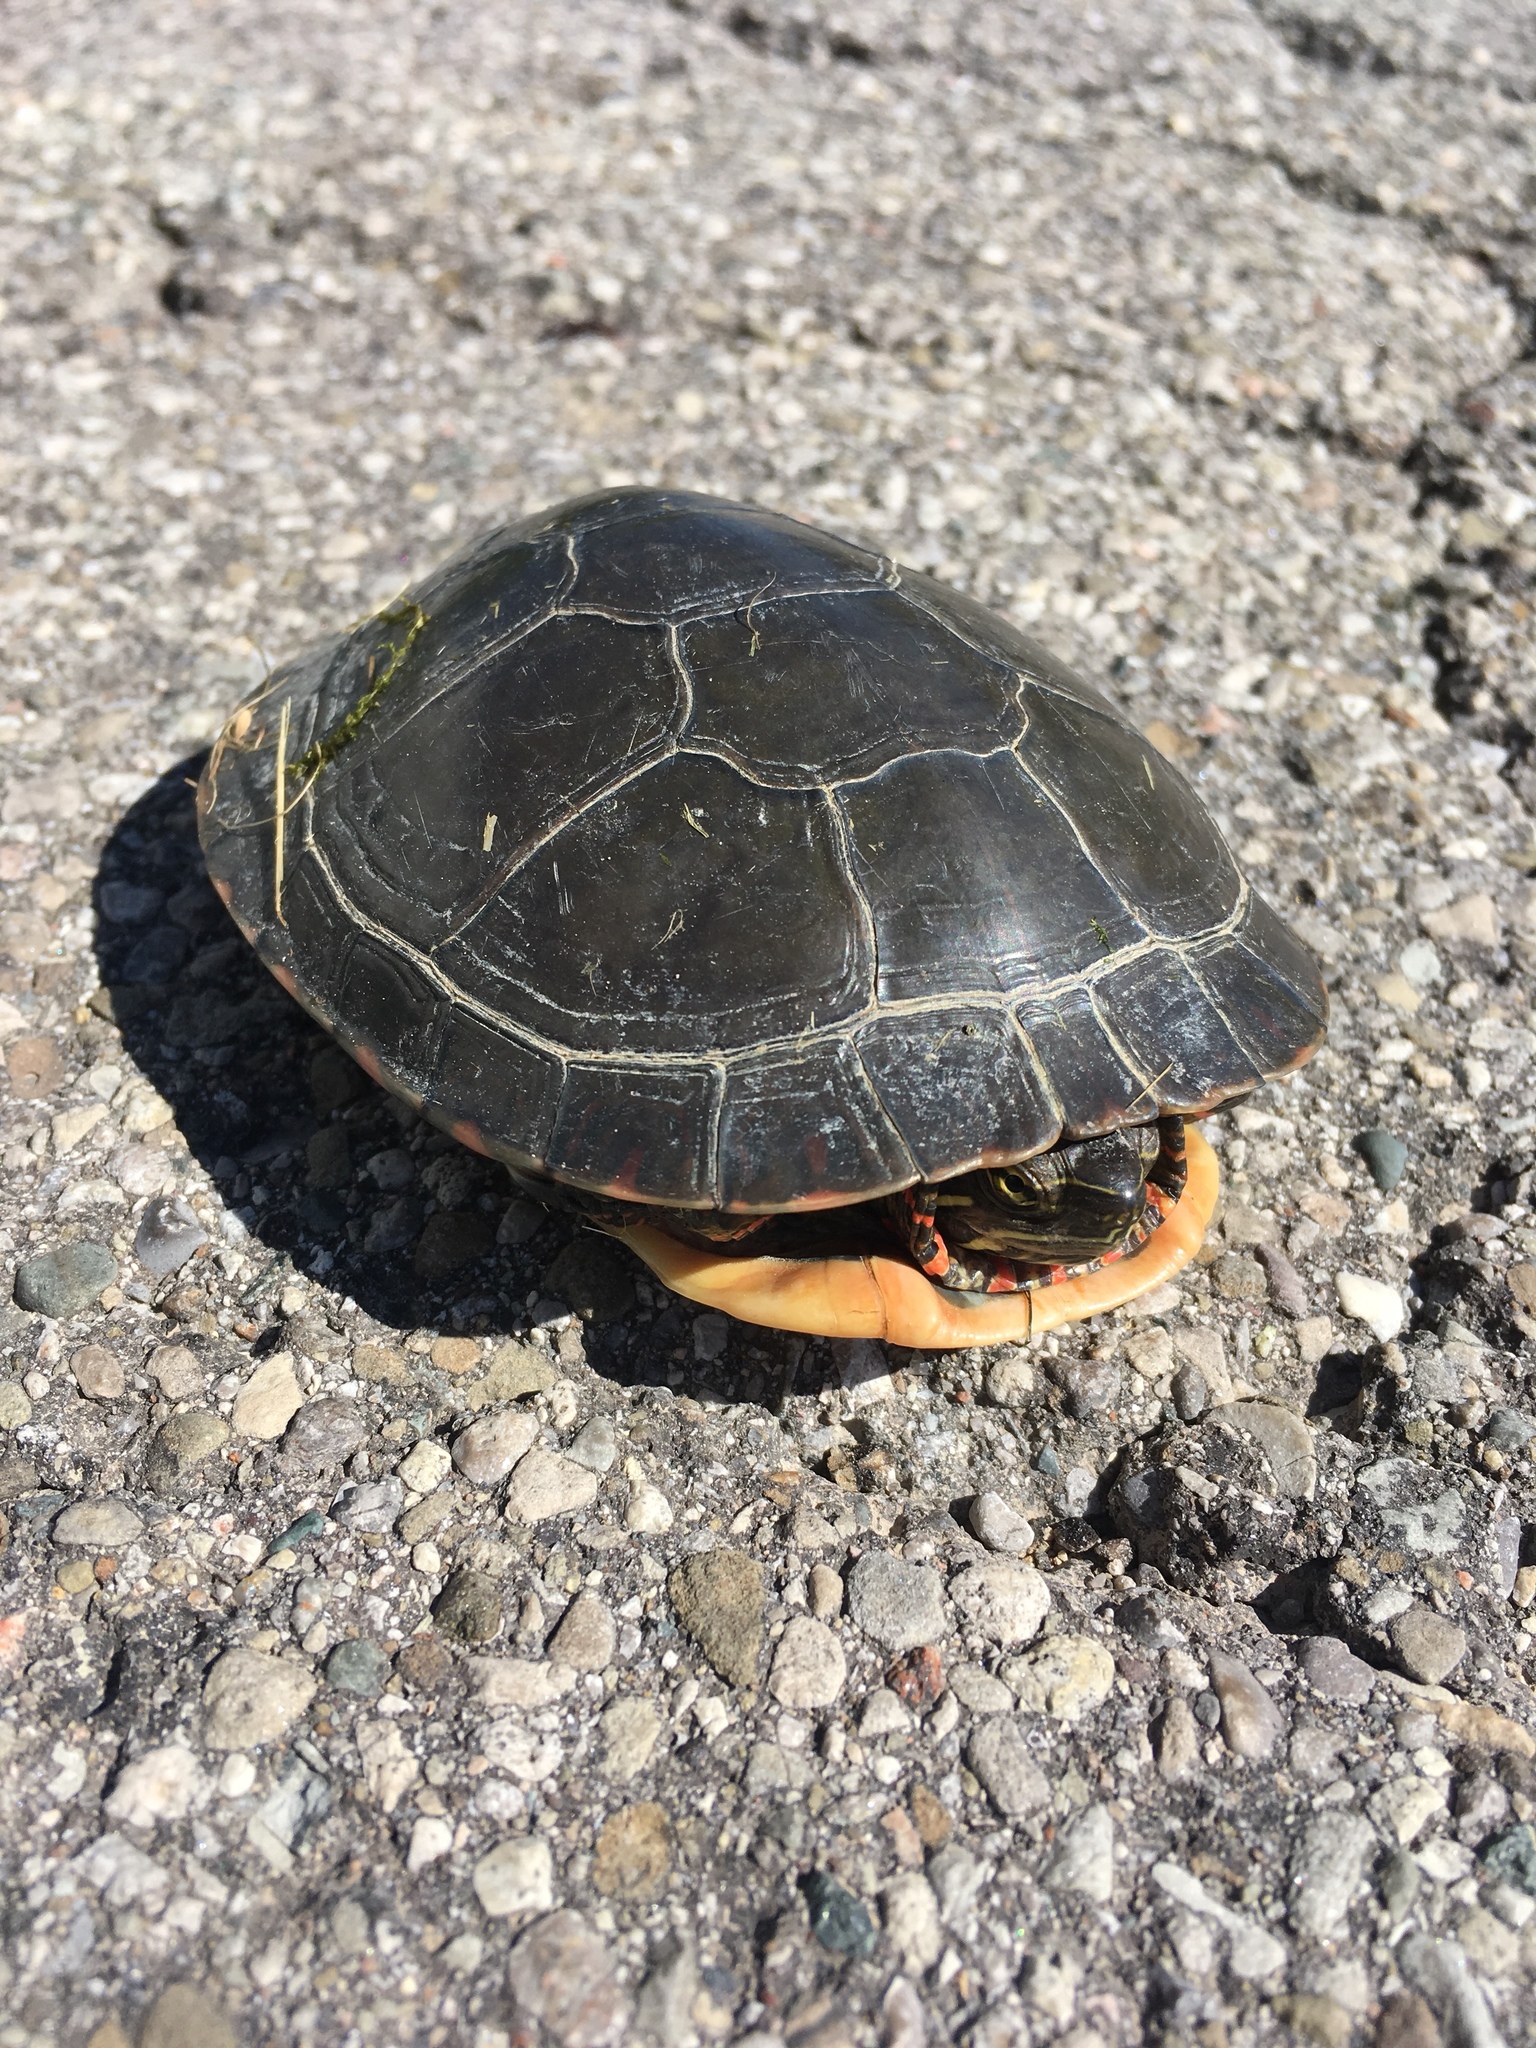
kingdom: Animalia
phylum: Chordata
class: Testudines
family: Emydidae
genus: Chrysemys
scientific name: Chrysemys picta
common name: Painted turtle
